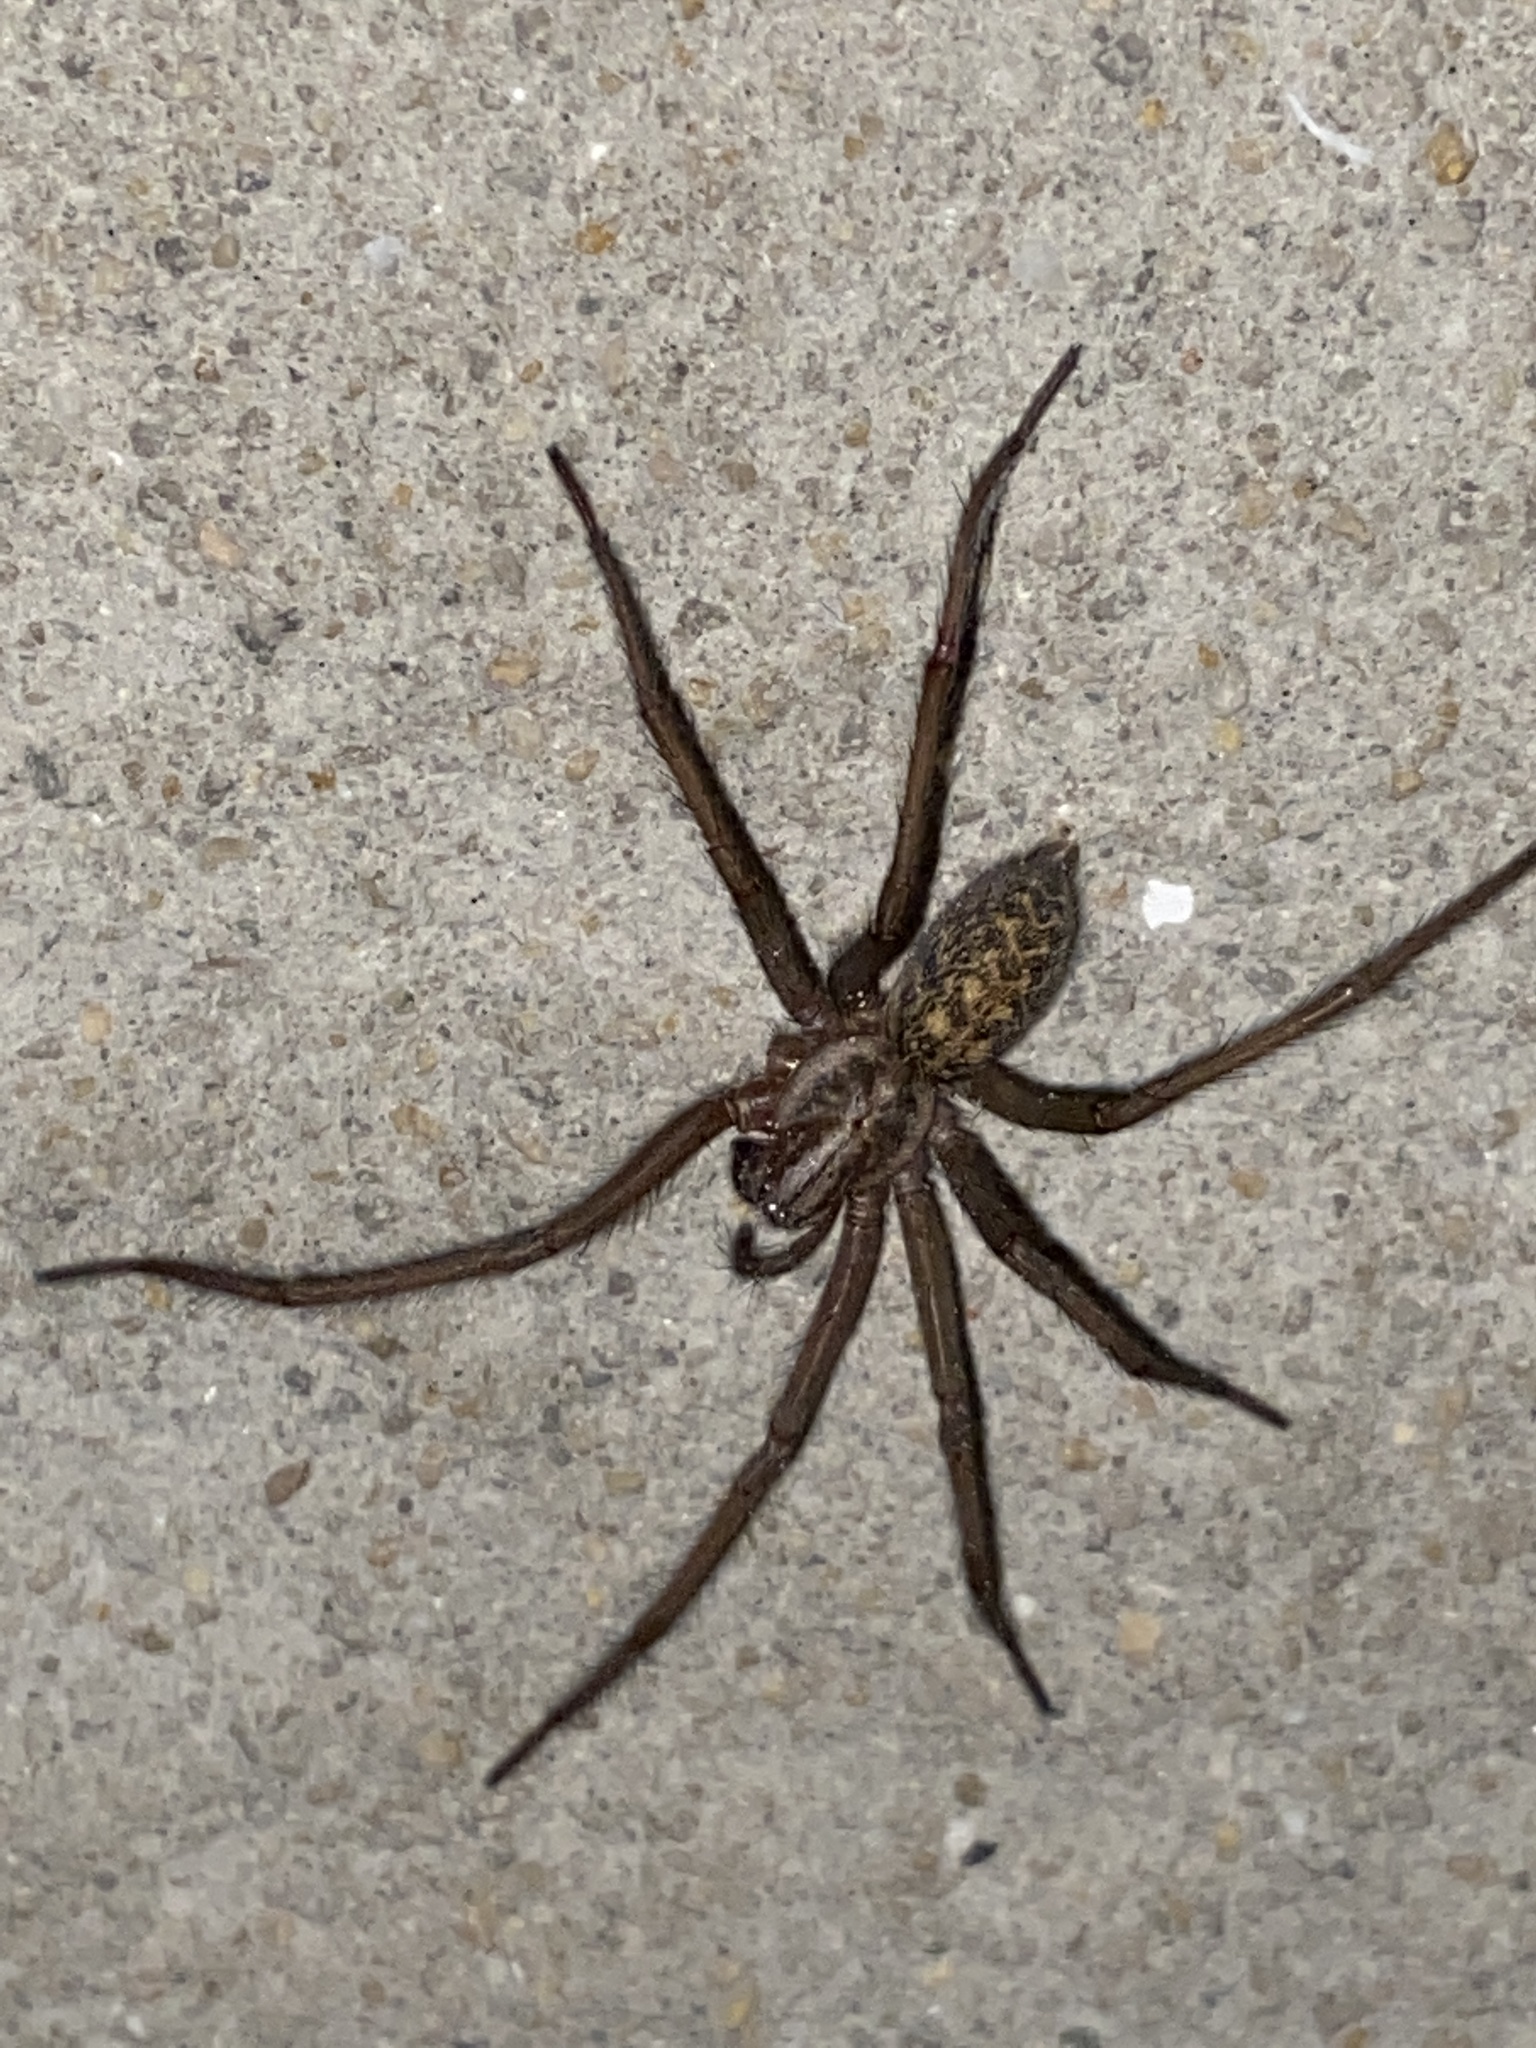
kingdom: Animalia
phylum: Arthropoda
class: Arachnida
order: Araneae
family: Agelenidae
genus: Eratigena
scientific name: Eratigena atrica
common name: Giant house spider
